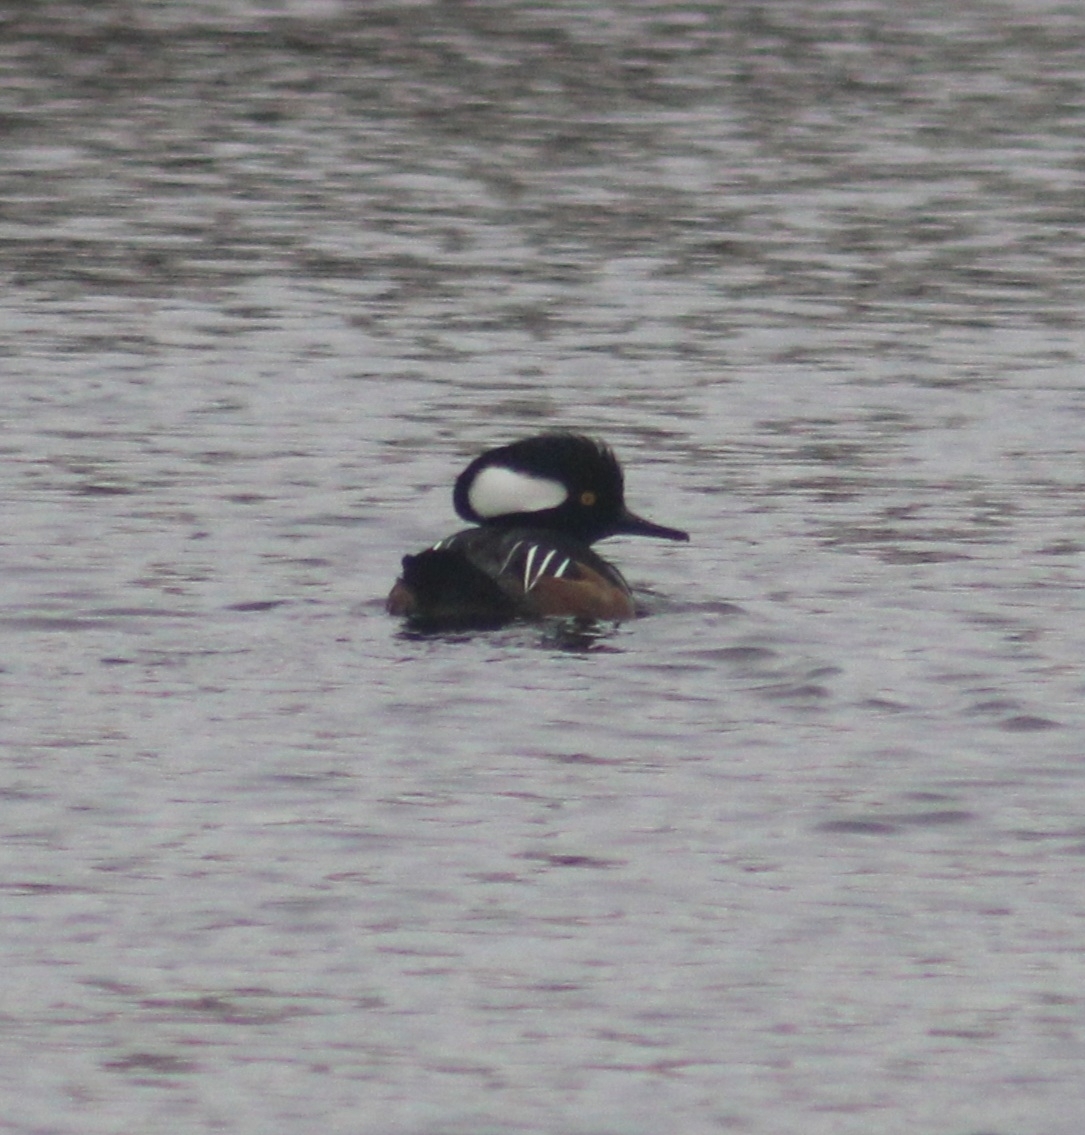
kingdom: Animalia
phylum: Chordata
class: Aves
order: Anseriformes
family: Anatidae
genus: Lophodytes
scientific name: Lophodytes cucullatus
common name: Hooded merganser
